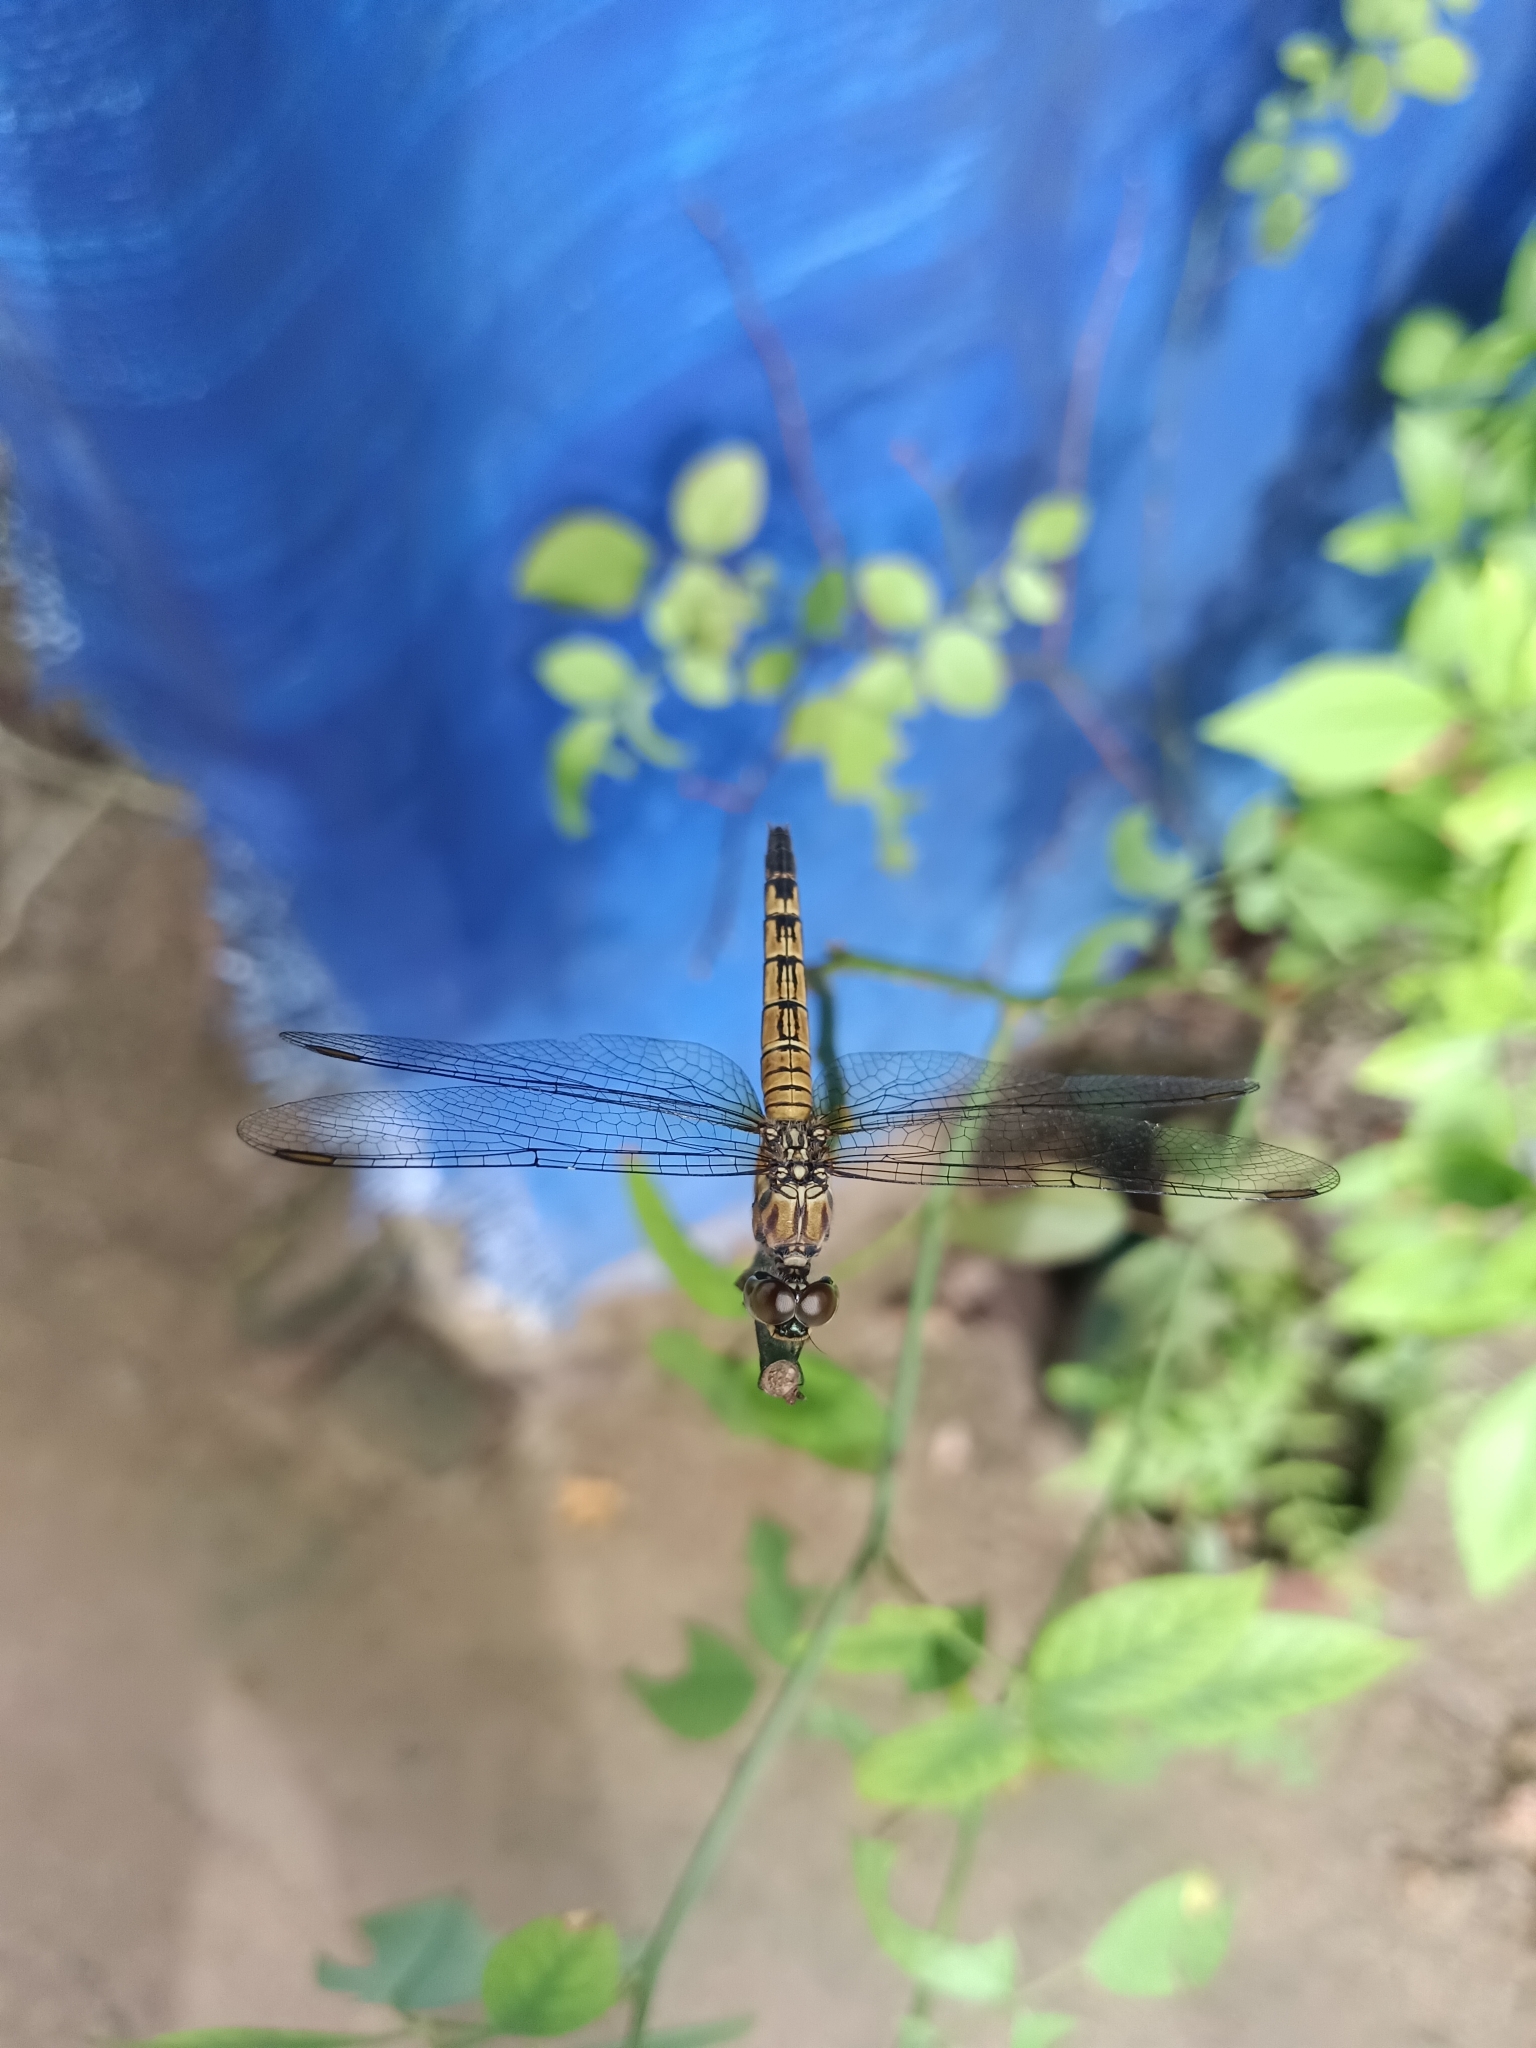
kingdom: Animalia
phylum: Arthropoda
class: Insecta
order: Odonata
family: Libellulidae
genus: Brachydiplax
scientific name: Brachydiplax chalybea
